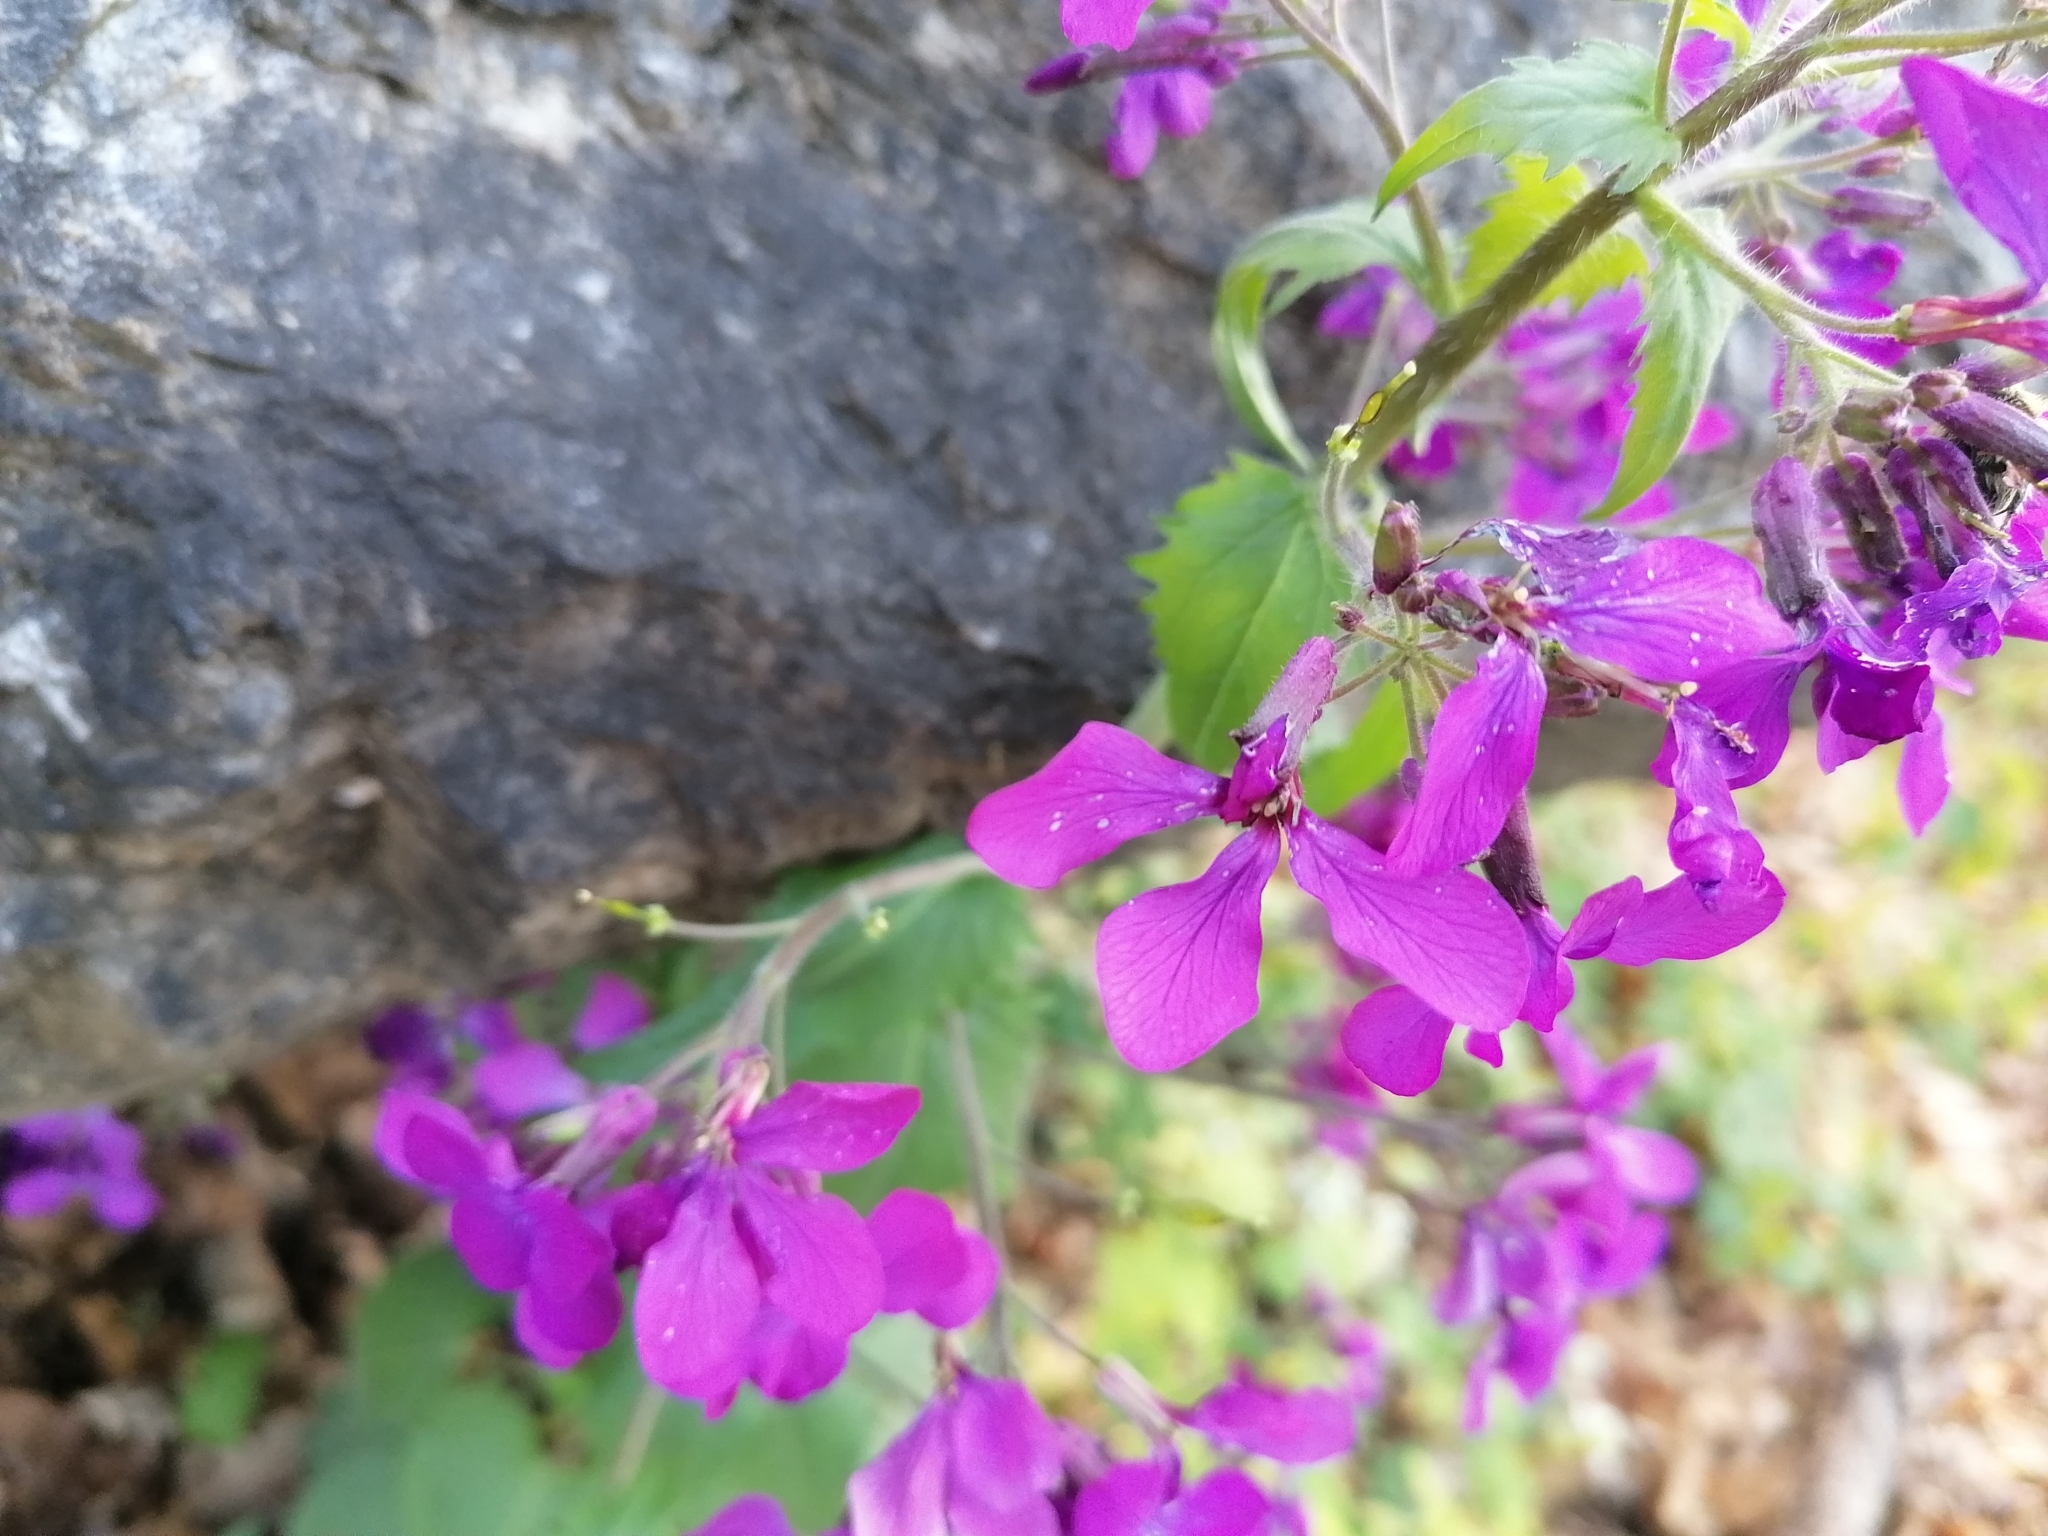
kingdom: Plantae
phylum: Tracheophyta
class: Magnoliopsida
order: Brassicales
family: Brassicaceae
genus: Lunaria
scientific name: Lunaria annua
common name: Honesty
